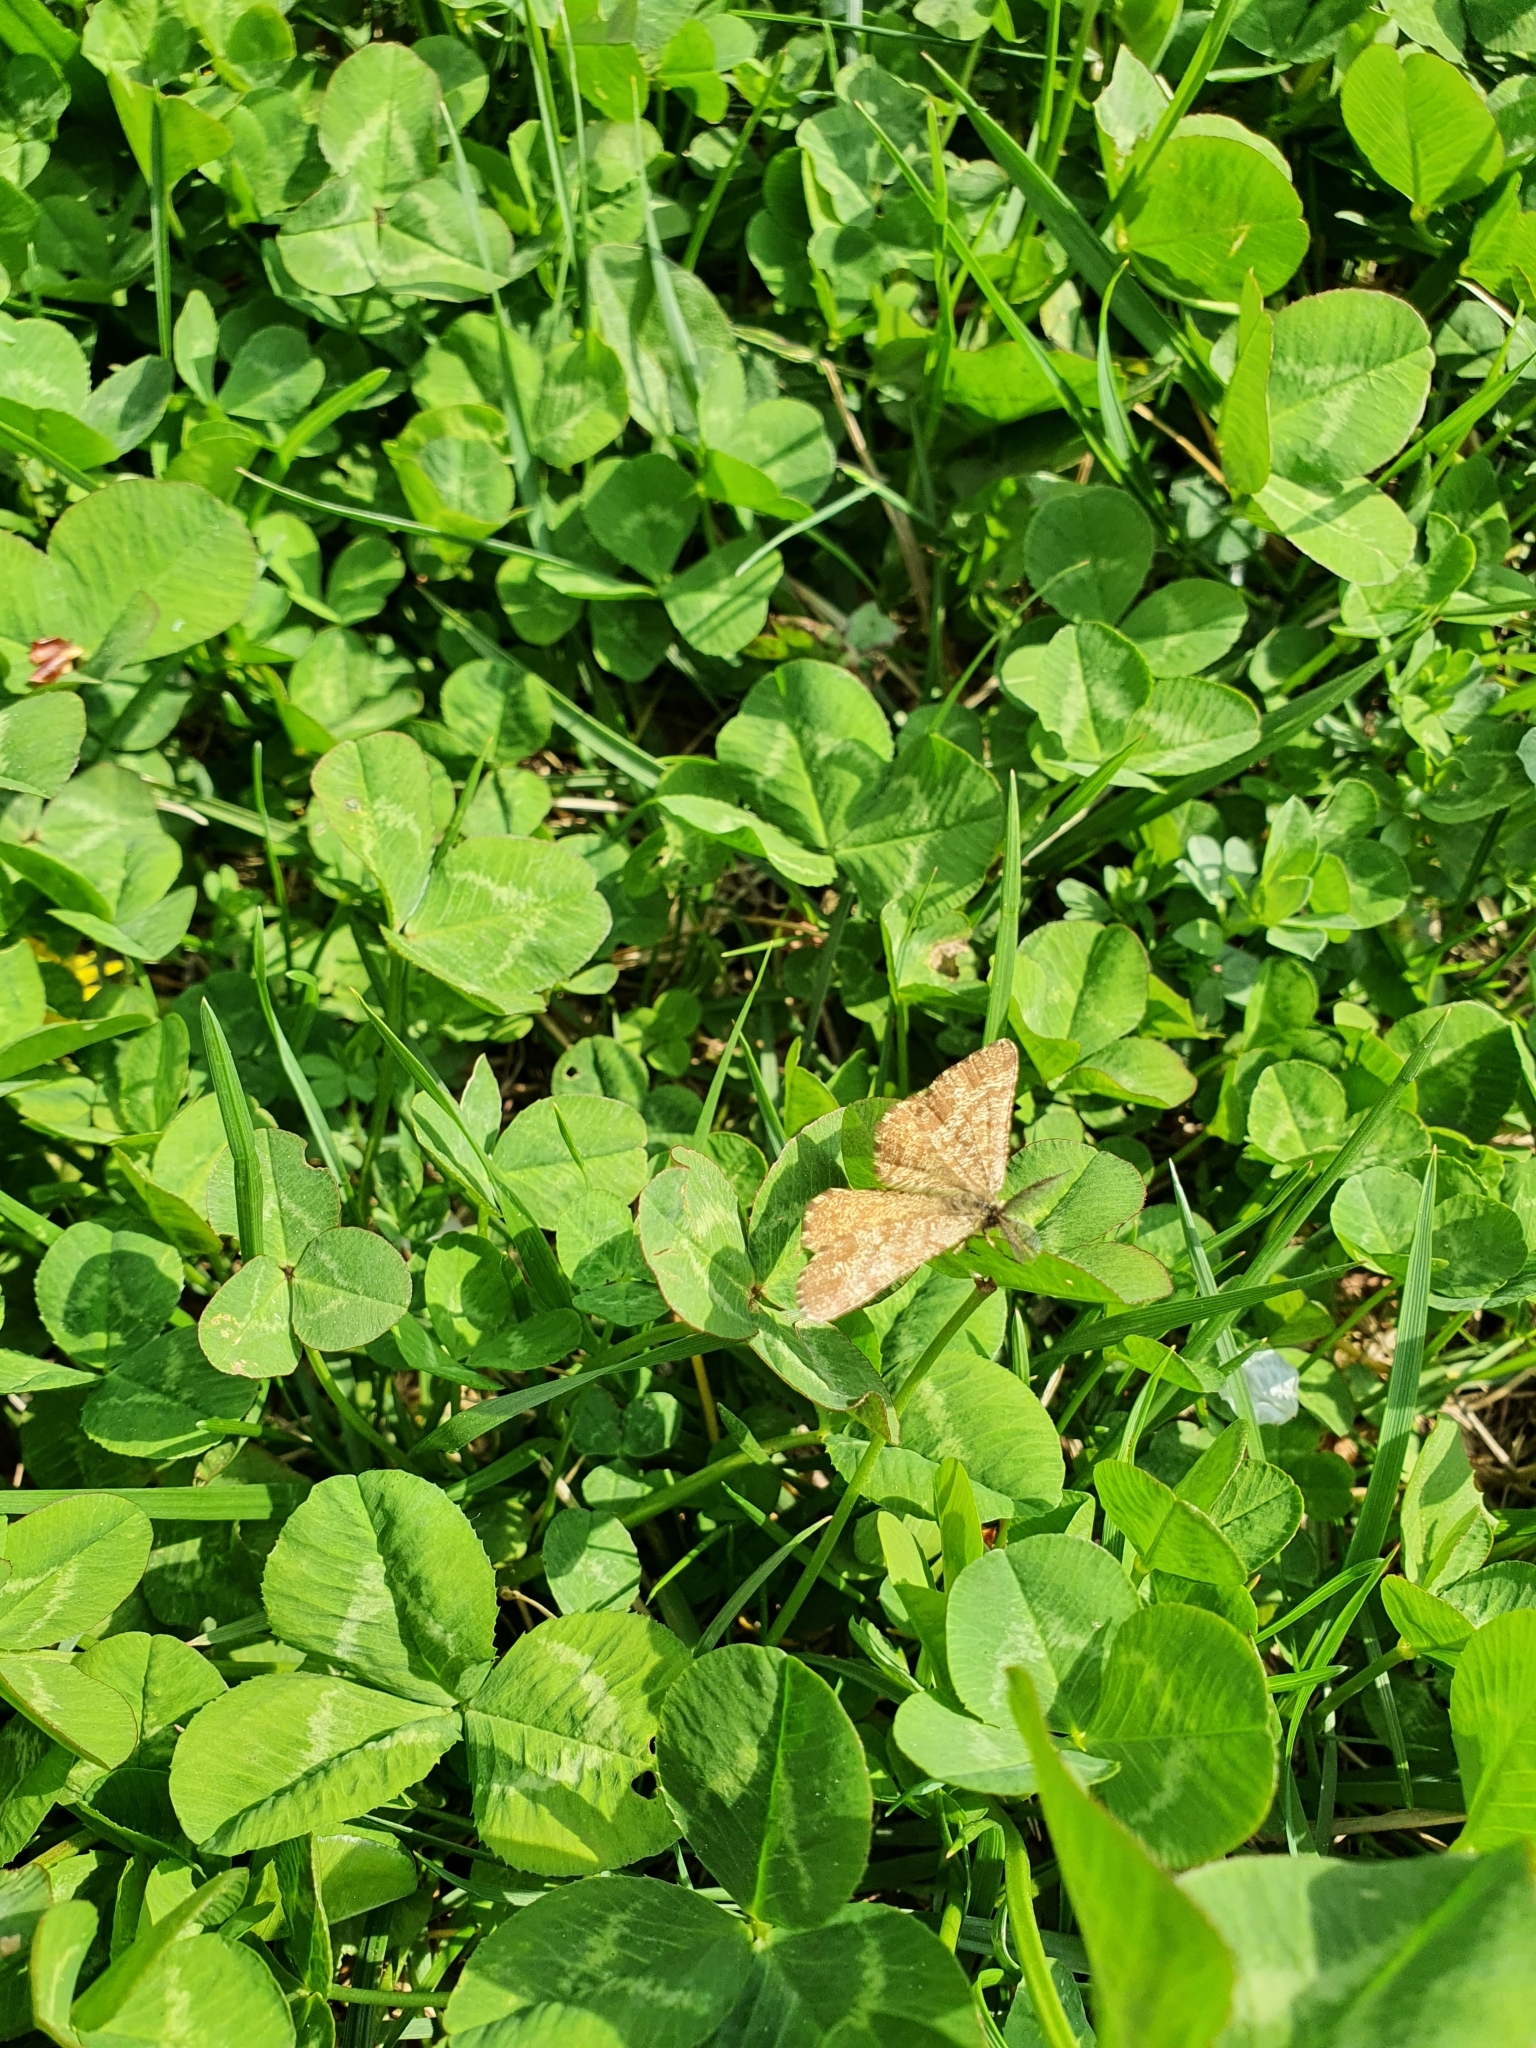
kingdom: Animalia
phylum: Arthropoda
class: Insecta
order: Lepidoptera
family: Geometridae
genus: Ematurga
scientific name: Ematurga atomaria
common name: Common heath
